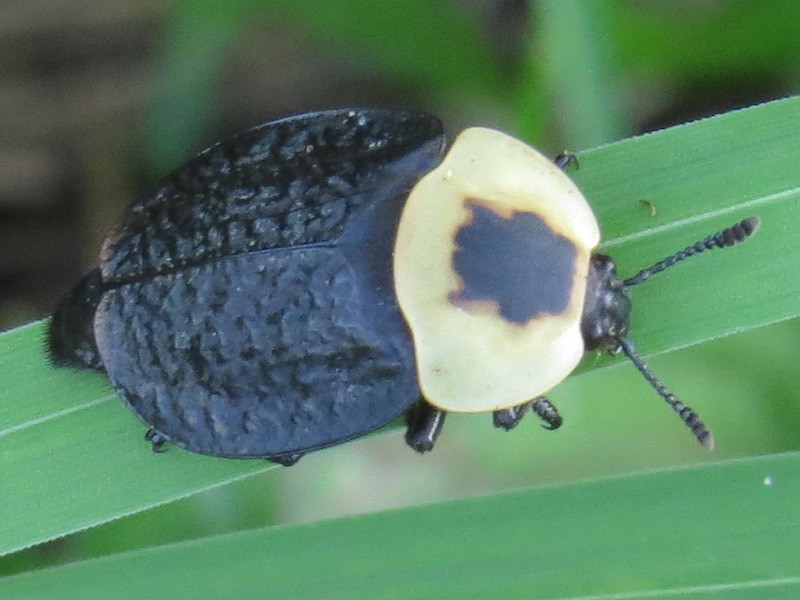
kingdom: Animalia
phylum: Arthropoda
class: Insecta
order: Coleoptera
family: Staphylinidae
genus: Necrophila
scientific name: Necrophila americana
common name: American carrion beetle
